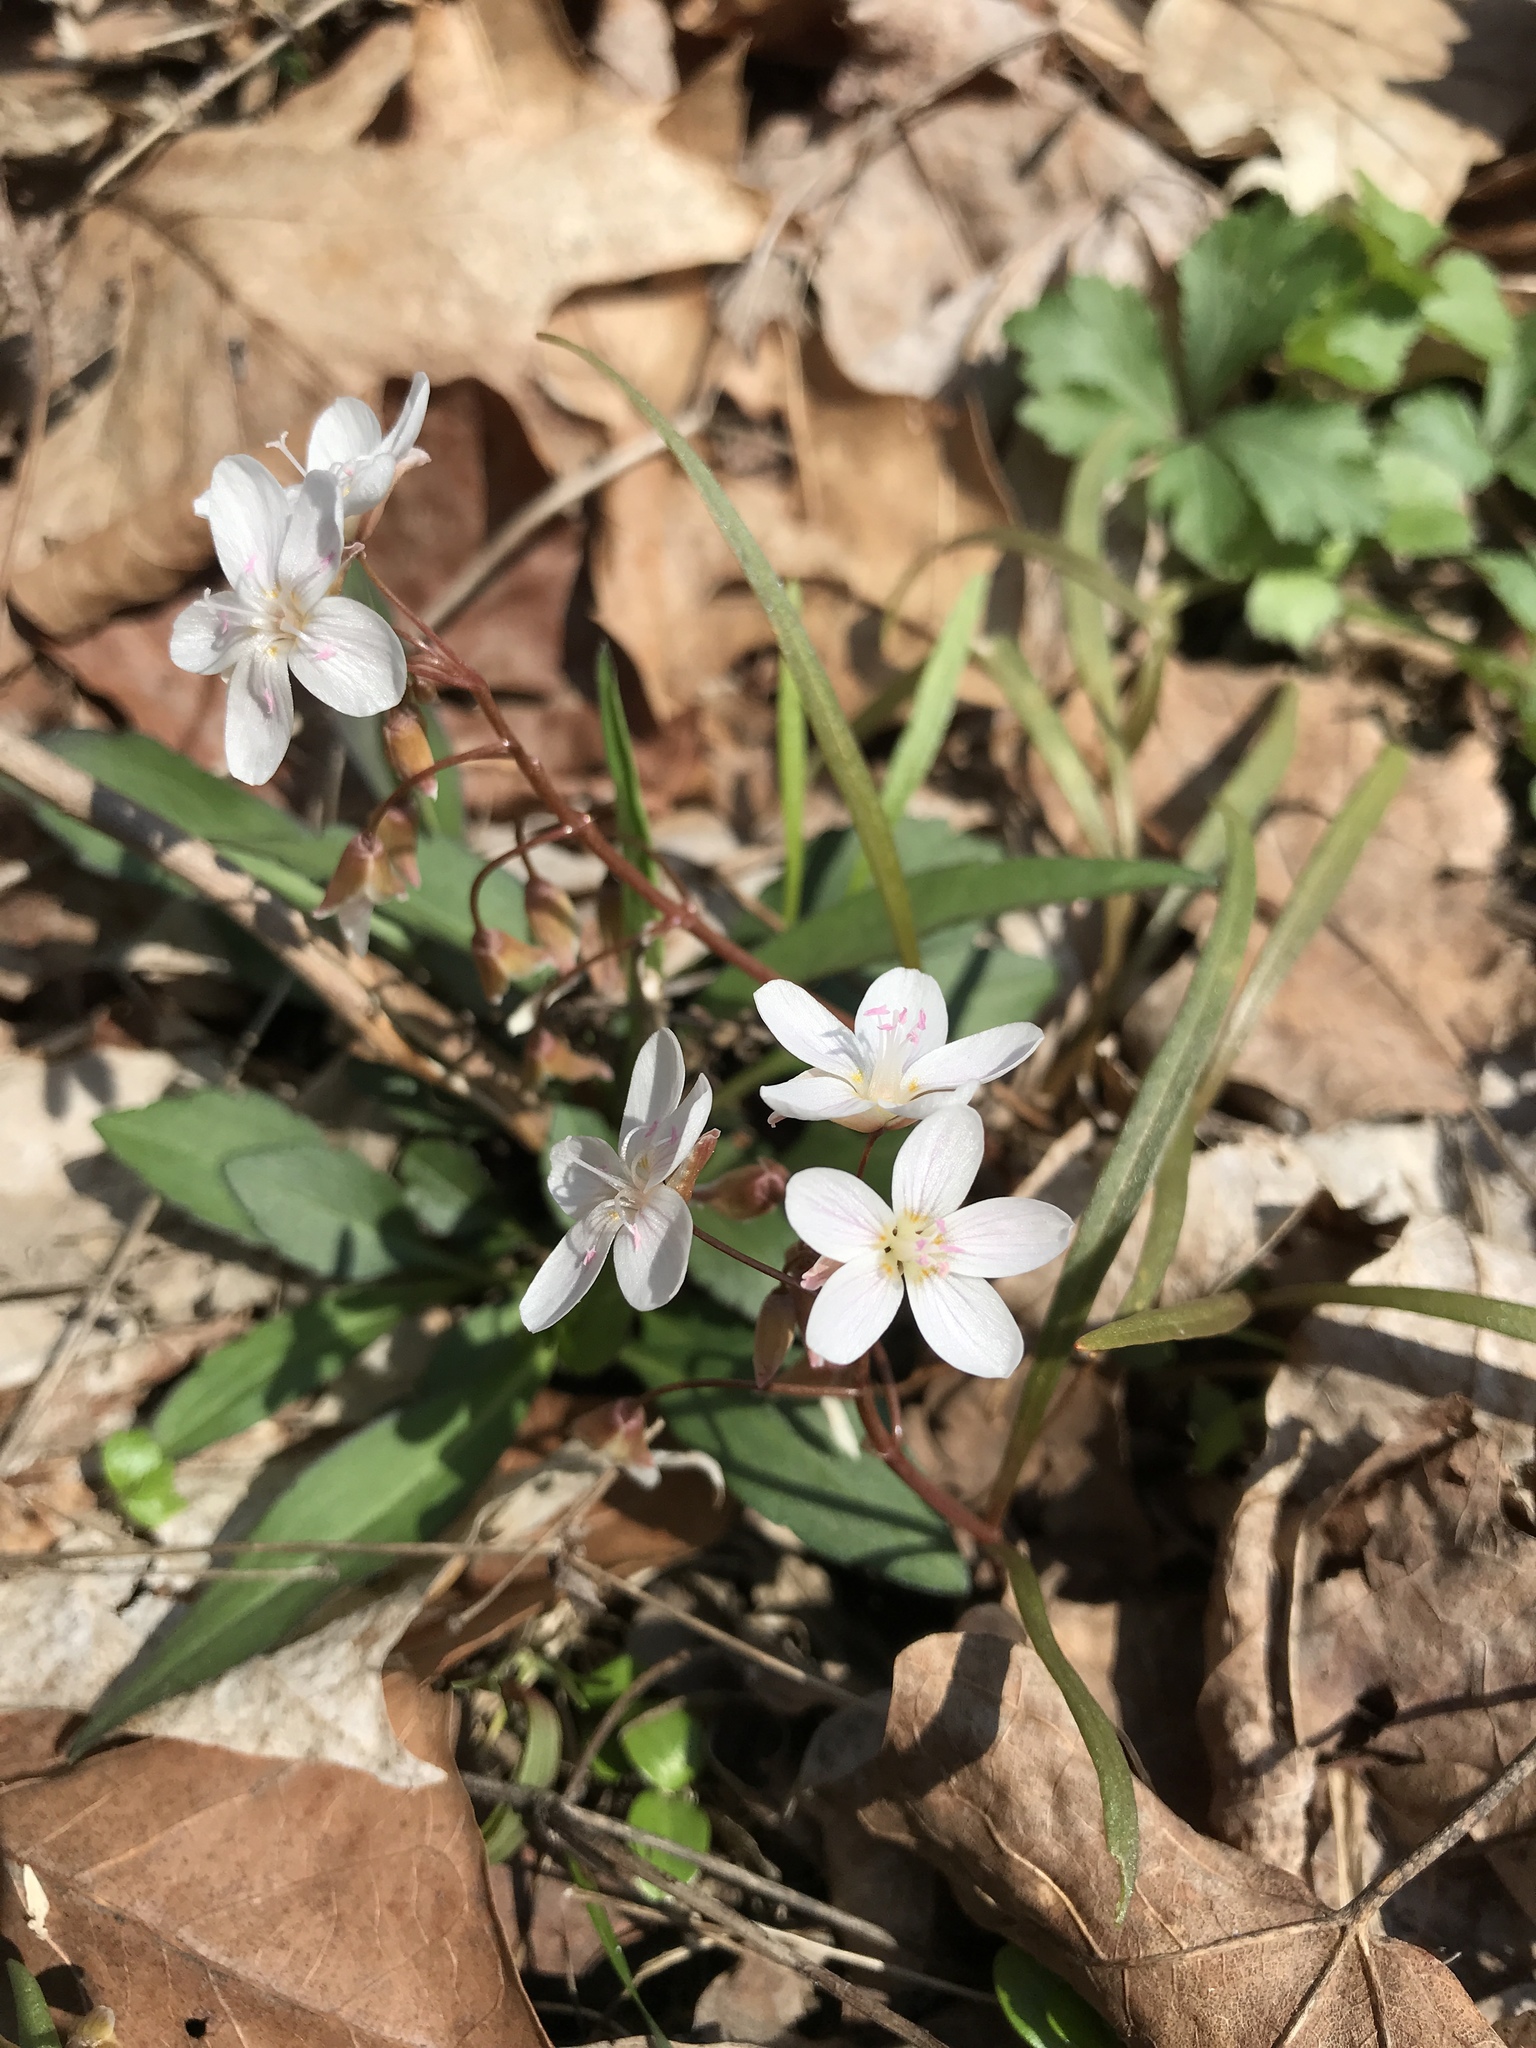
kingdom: Plantae
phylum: Tracheophyta
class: Magnoliopsida
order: Caryophyllales
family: Montiaceae
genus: Claytonia
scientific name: Claytonia virginica
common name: Virginia springbeauty
